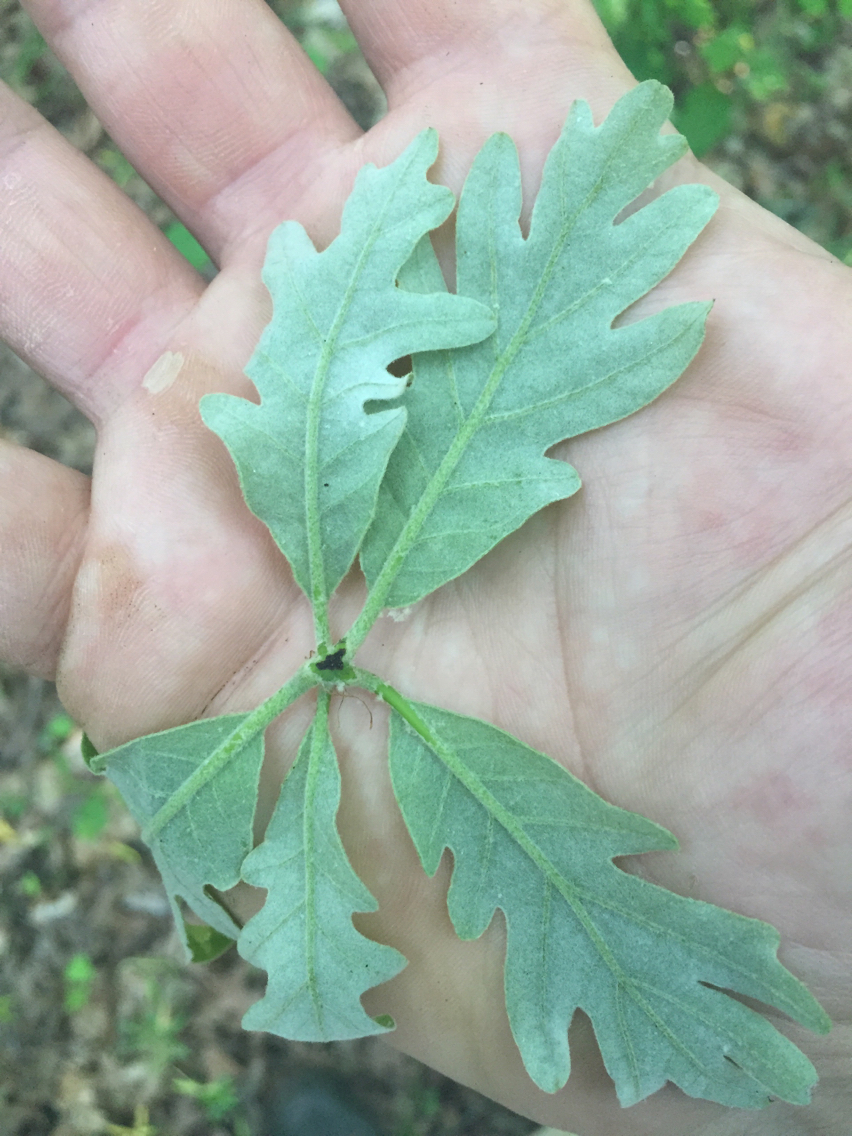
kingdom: Plantae
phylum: Tracheophyta
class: Magnoliopsida
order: Fagales
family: Fagaceae
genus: Quercus
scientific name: Quercus alba
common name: White oak
